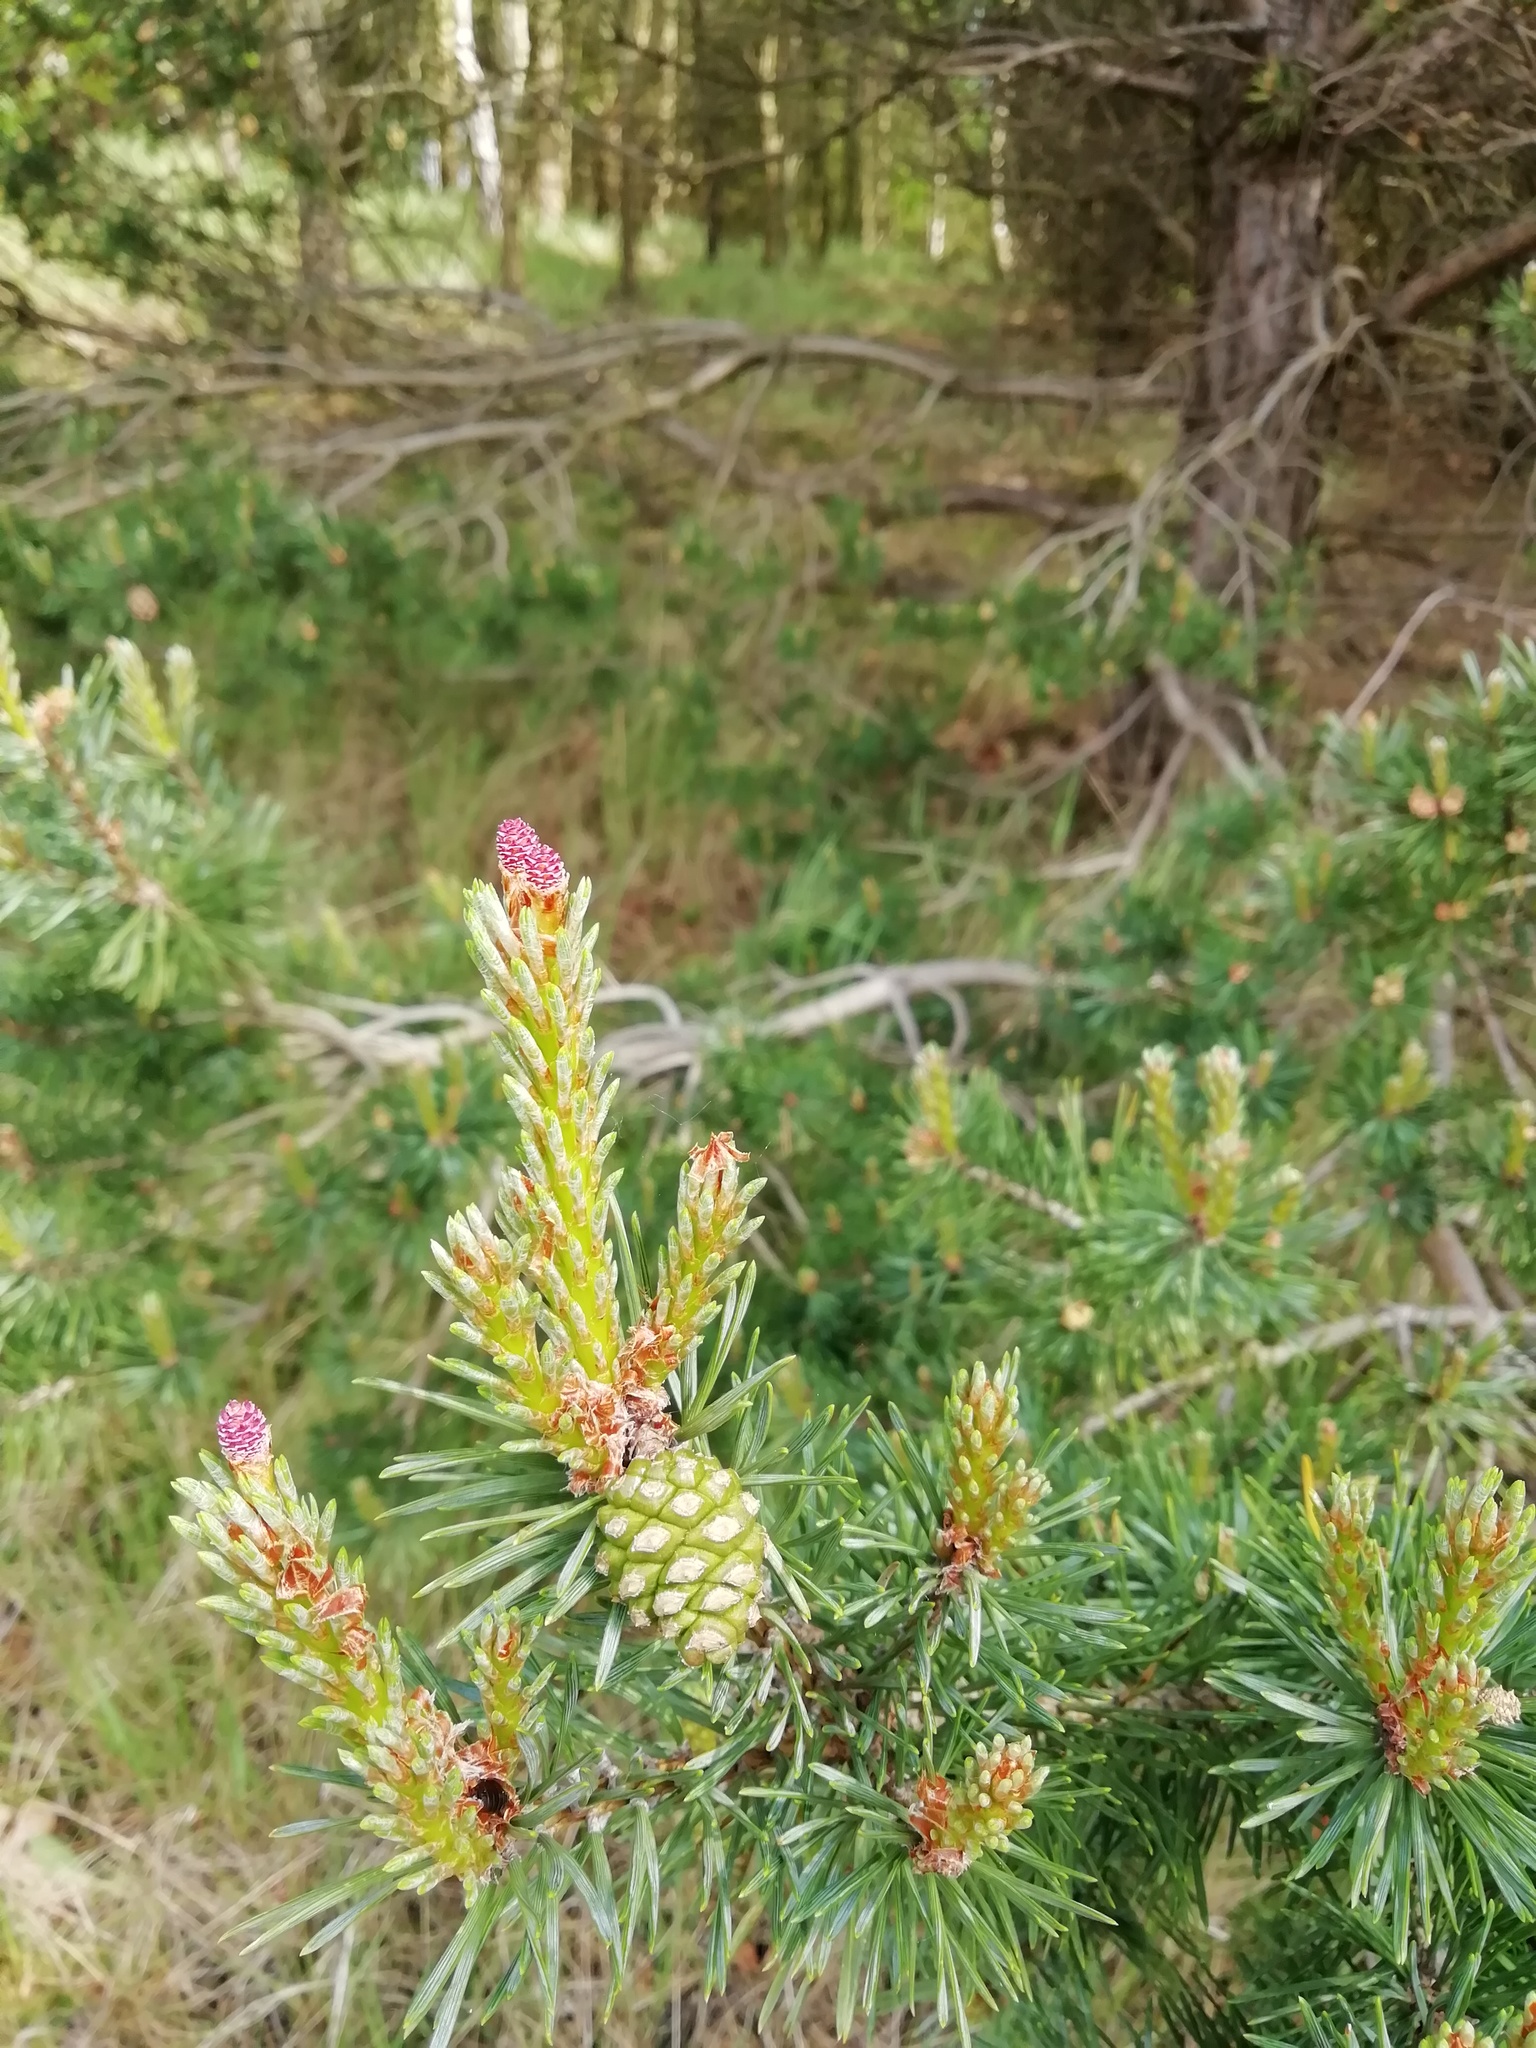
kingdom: Plantae
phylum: Tracheophyta
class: Pinopsida
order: Pinales
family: Pinaceae
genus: Pinus
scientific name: Pinus sylvestris
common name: Scots pine
